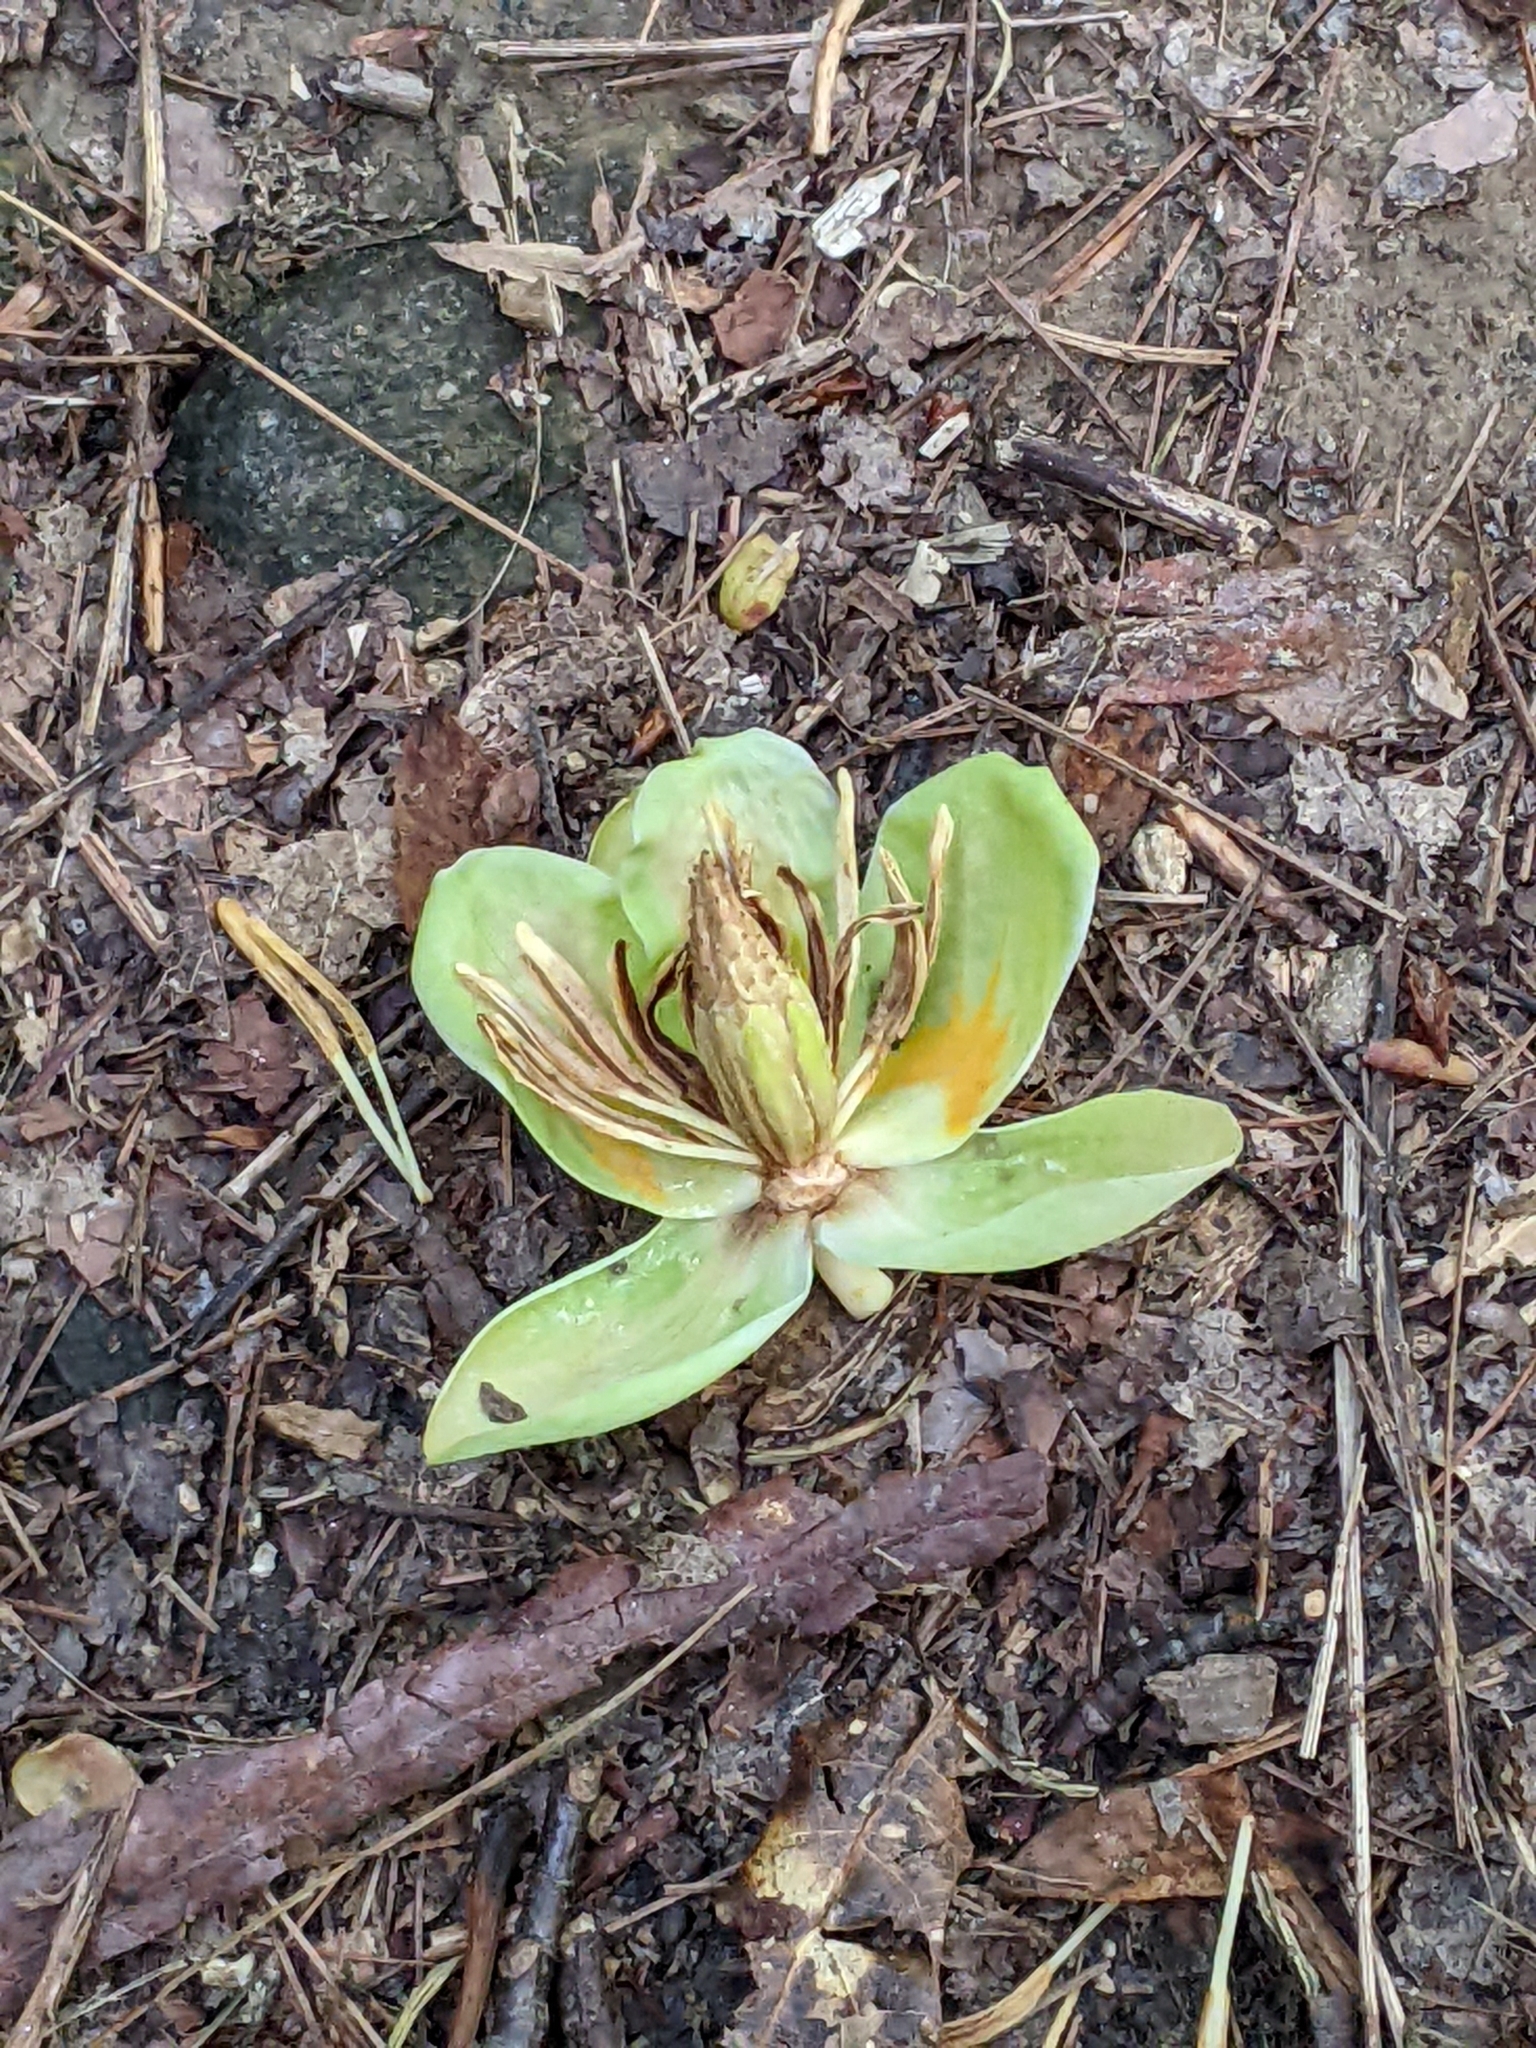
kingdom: Plantae
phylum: Tracheophyta
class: Magnoliopsida
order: Magnoliales
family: Magnoliaceae
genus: Liriodendron
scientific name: Liriodendron tulipifera
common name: Tulip tree
